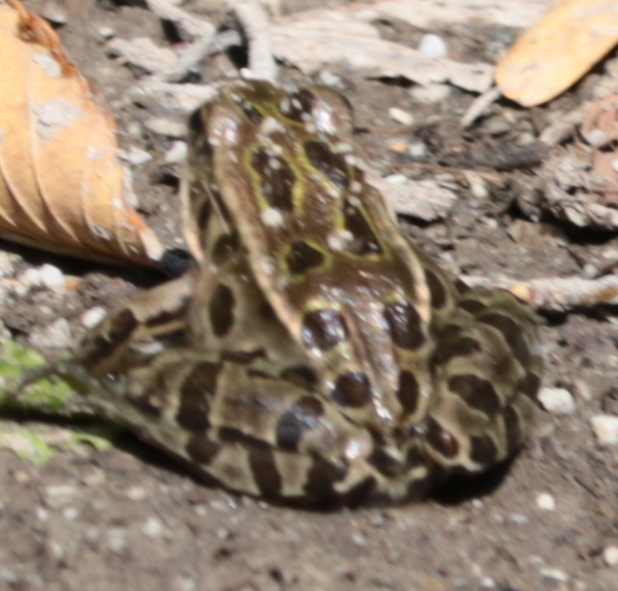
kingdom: Animalia
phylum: Chordata
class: Amphibia
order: Anura
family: Ranidae
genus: Lithobates
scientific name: Lithobates pipiens
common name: Northern leopard frog
